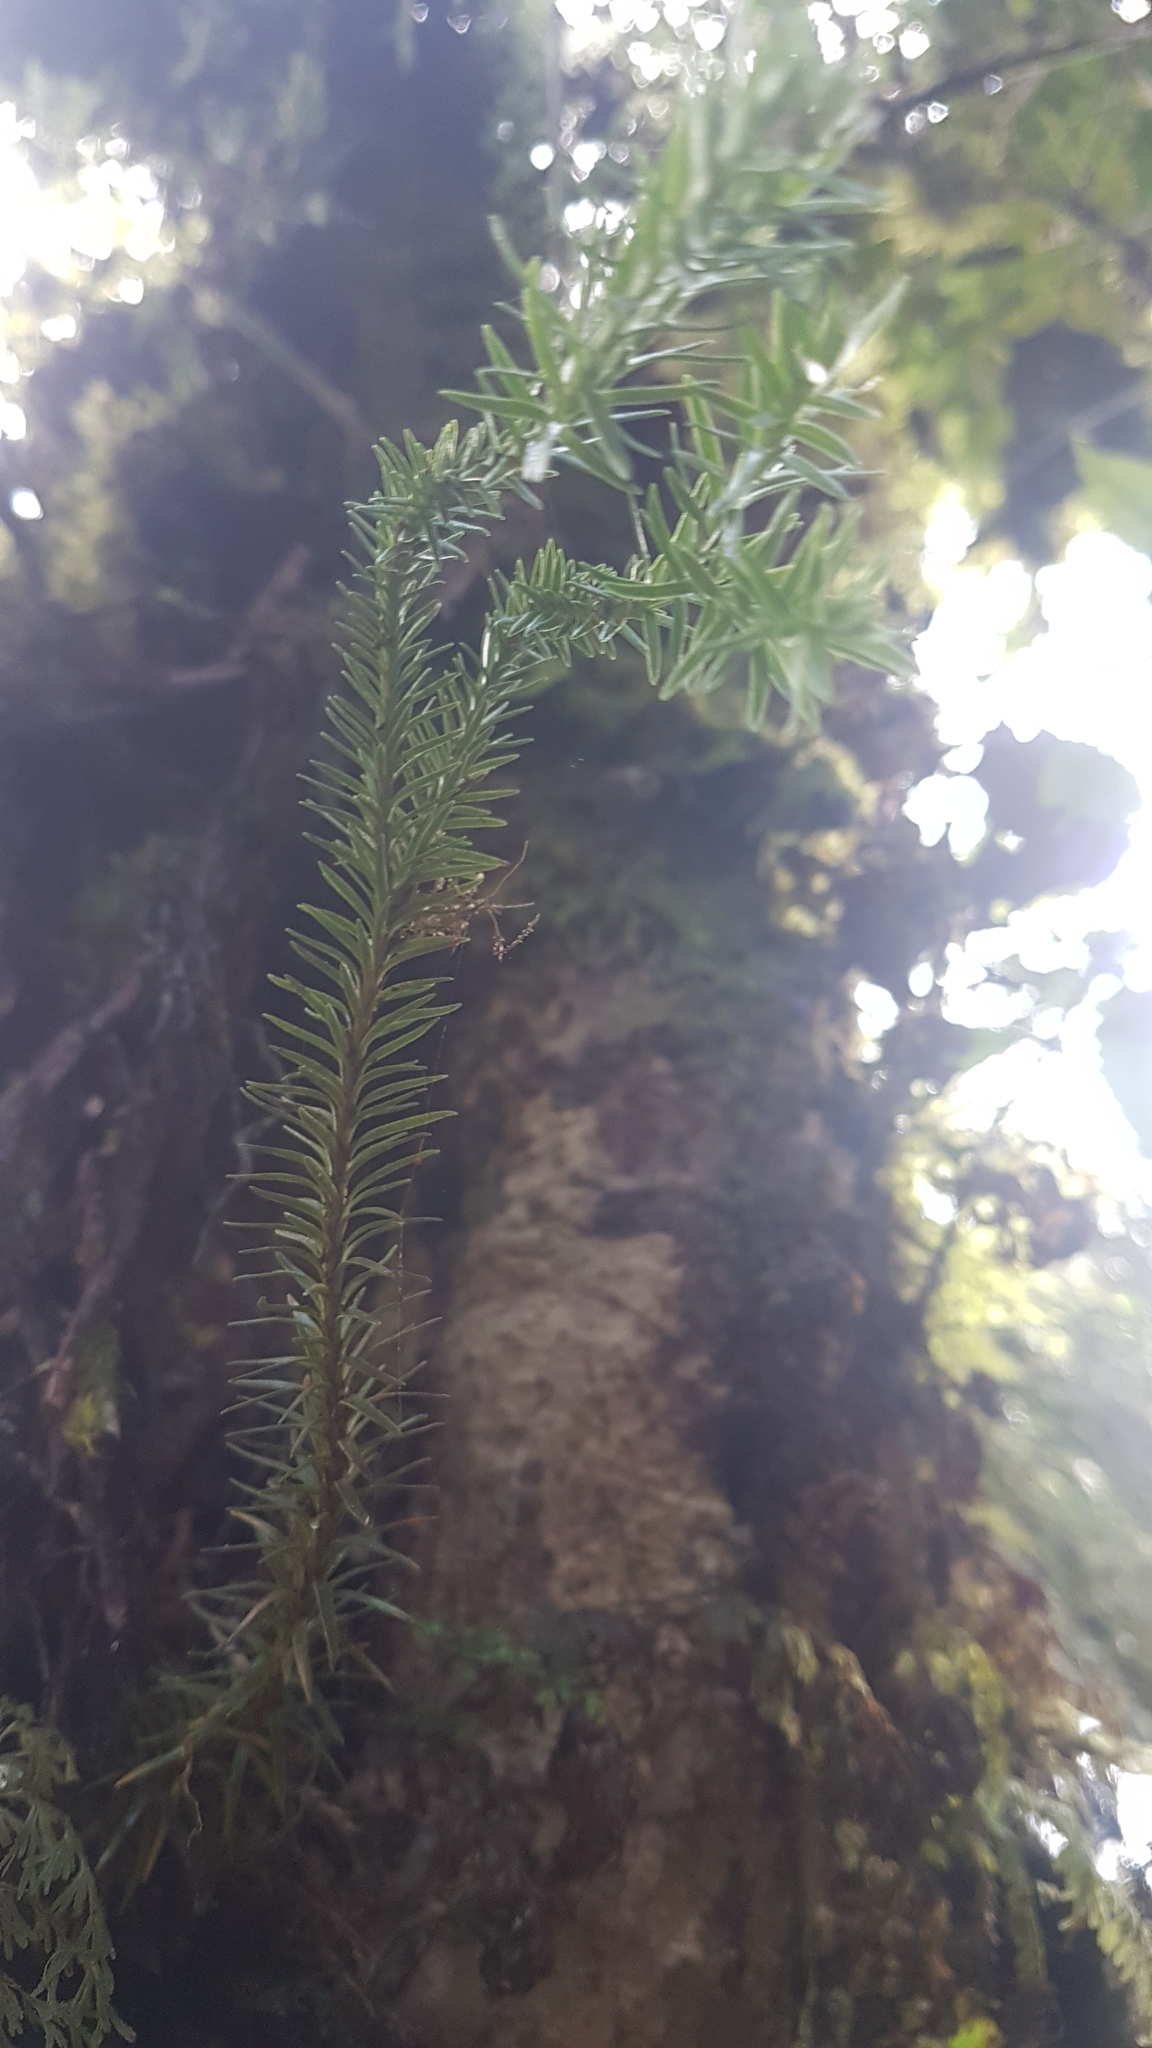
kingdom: Plantae
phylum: Tracheophyta
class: Lycopodiopsida
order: Lycopodiales
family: Lycopodiaceae
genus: Phlegmariurus
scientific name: Phlegmariurus varius
